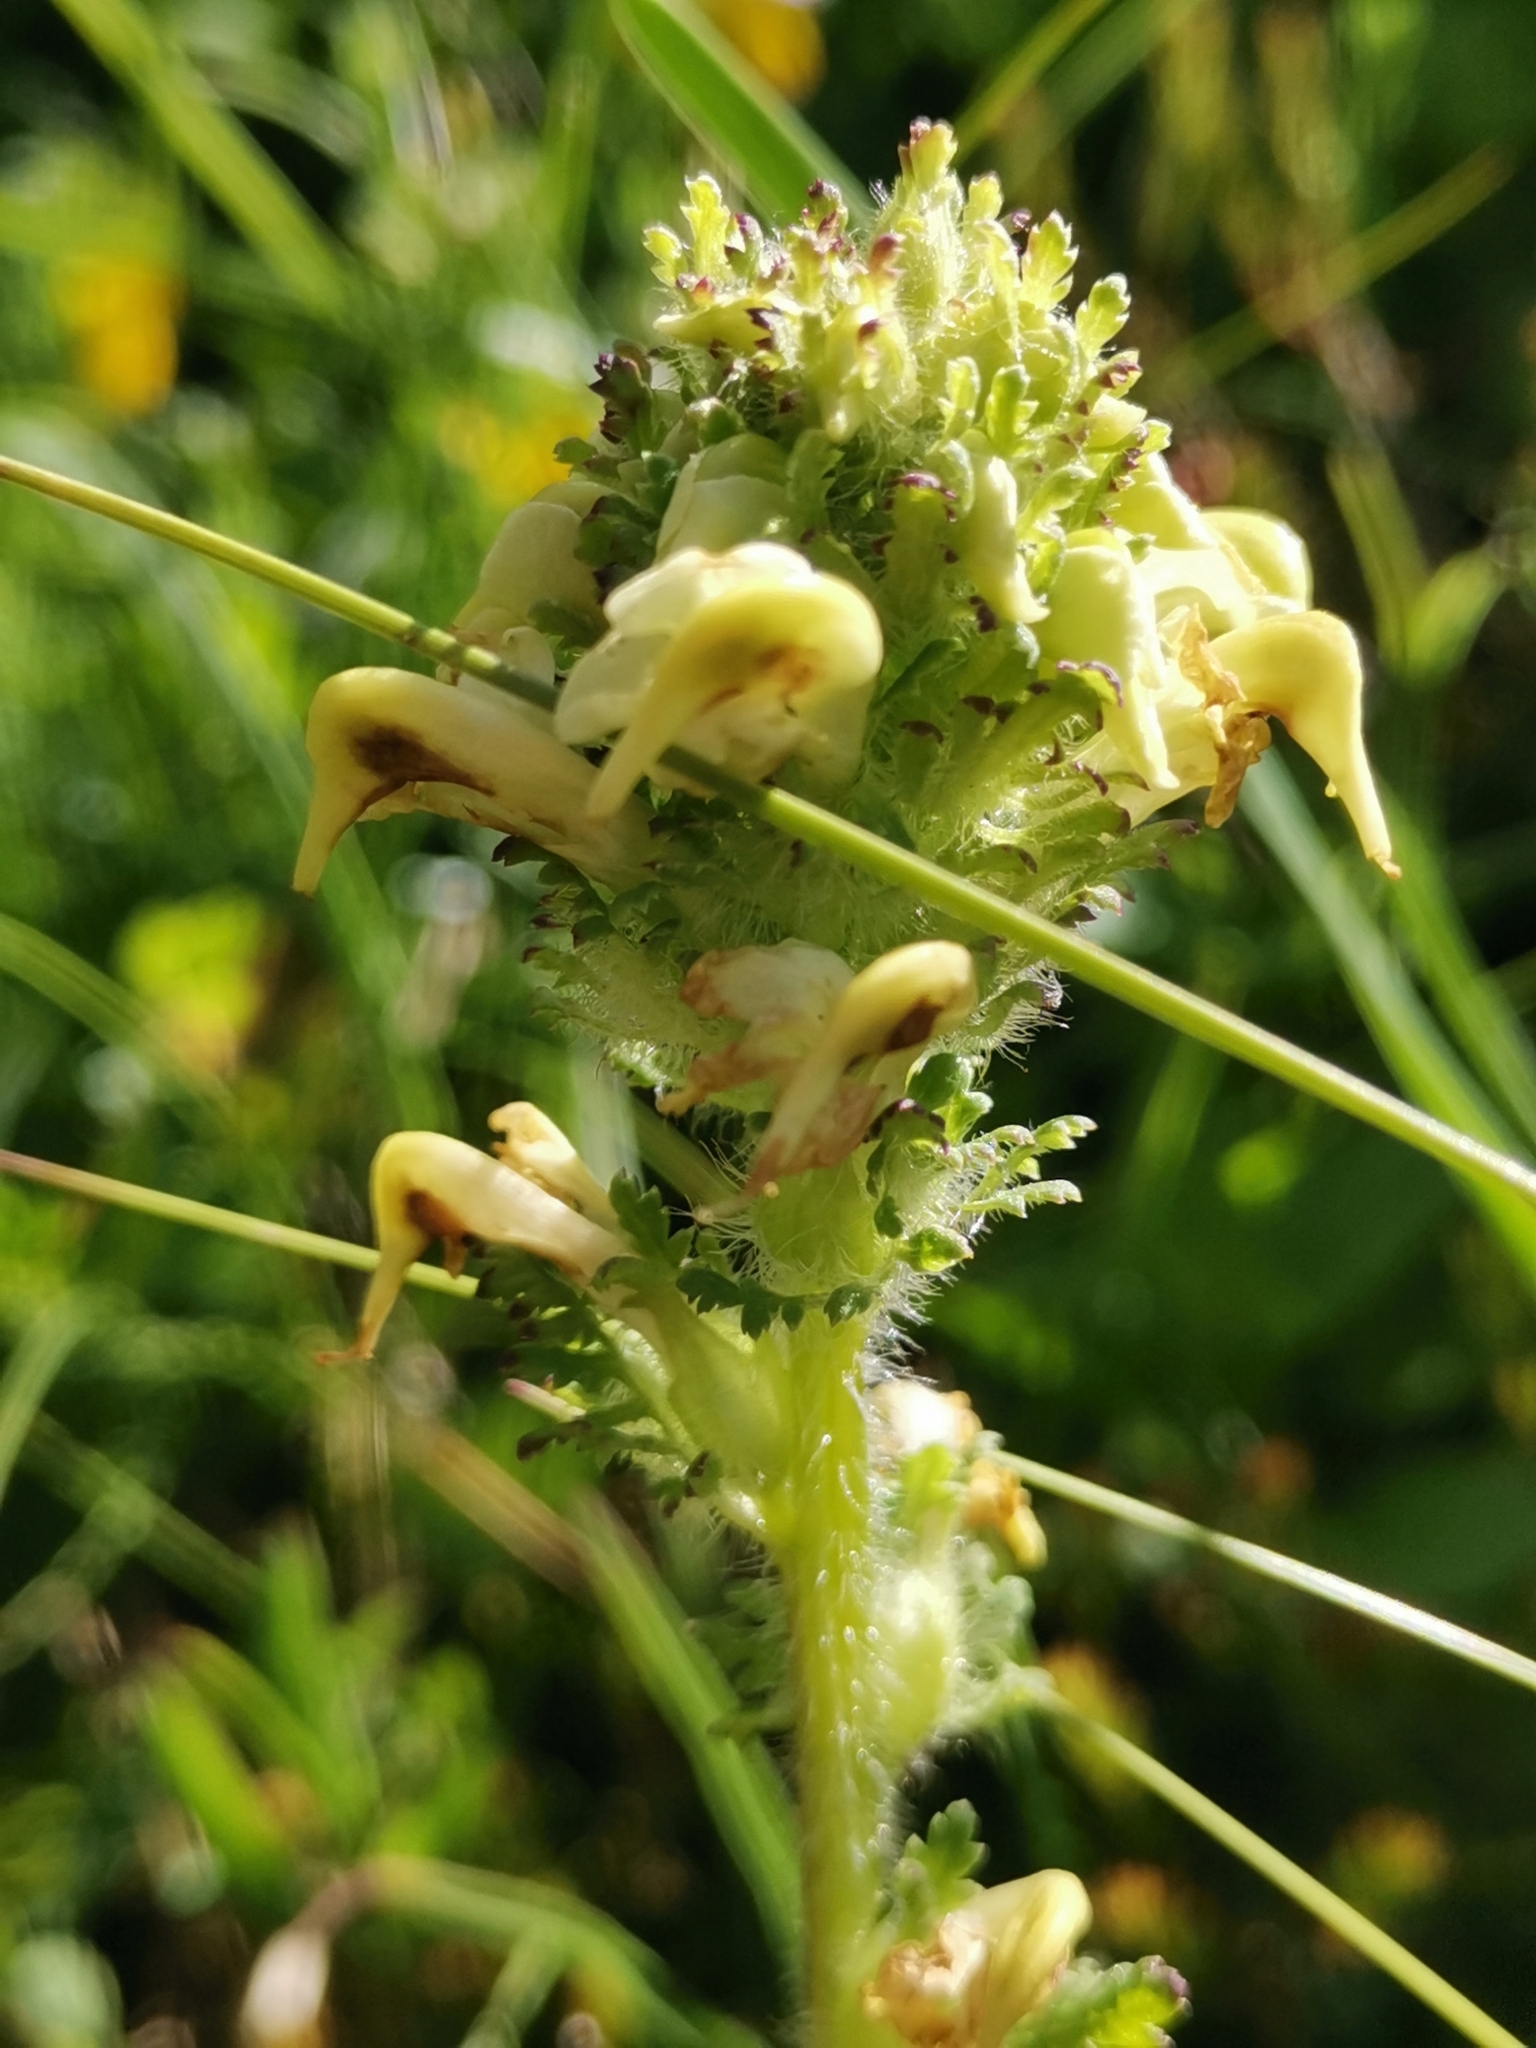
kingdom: Plantae
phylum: Tracheophyta
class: Magnoliopsida
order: Lamiales
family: Orobanchaceae
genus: Pedicularis
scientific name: Pedicularis julica
